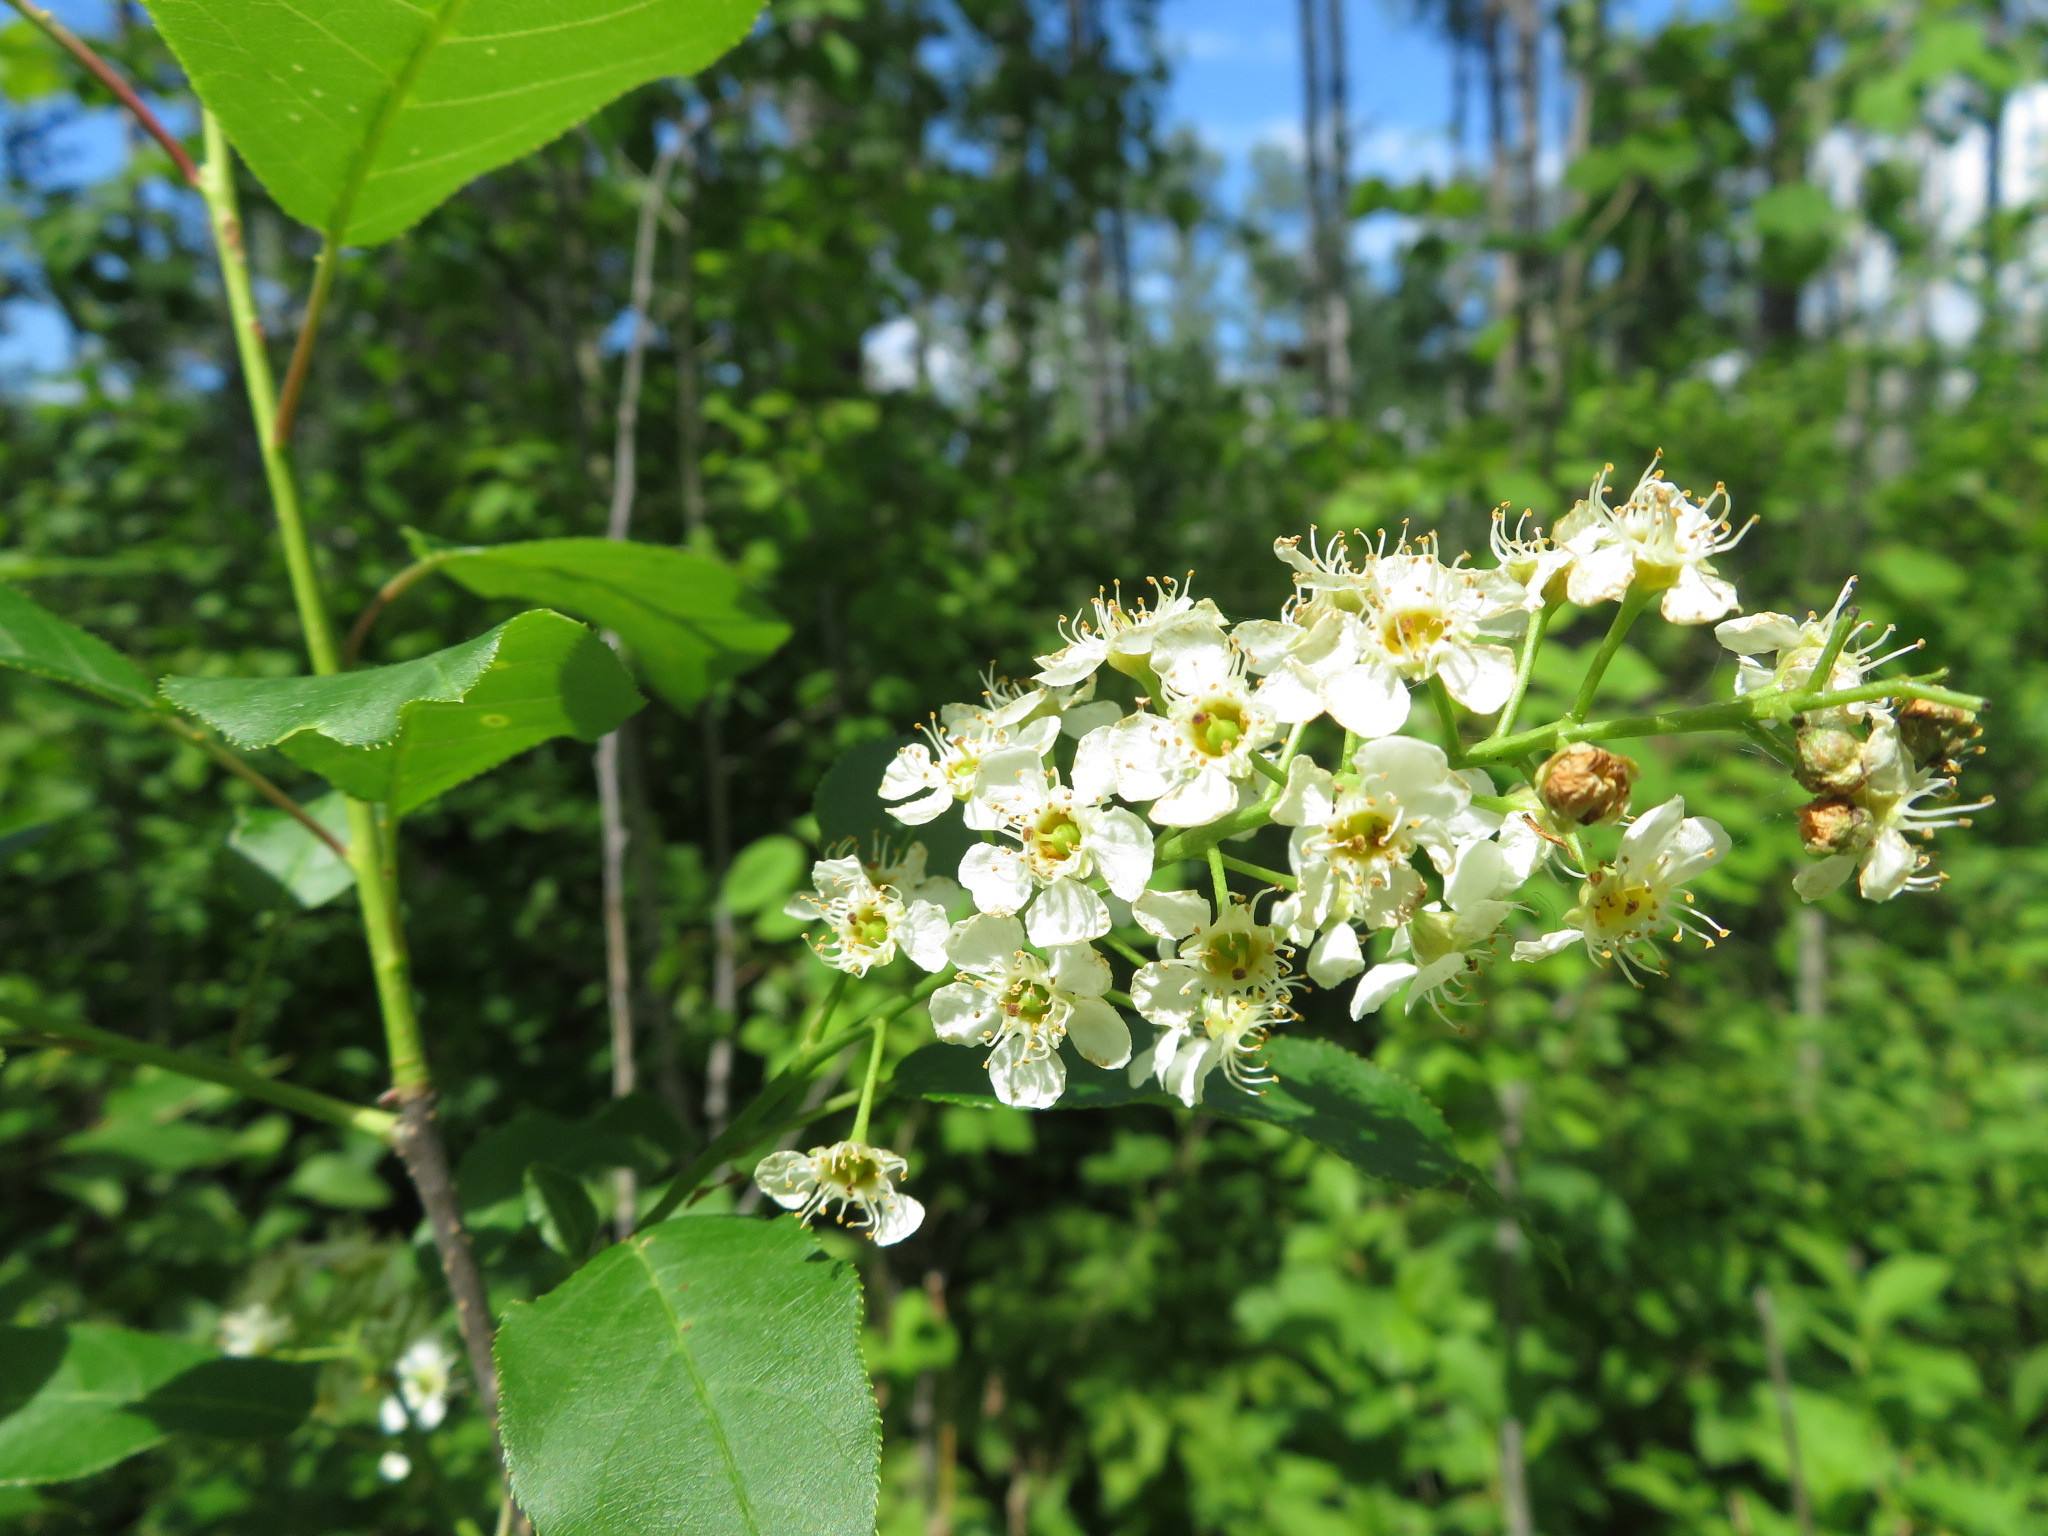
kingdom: Plantae
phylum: Tracheophyta
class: Magnoliopsida
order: Rosales
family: Rosaceae
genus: Prunus
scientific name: Prunus virginiana
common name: Chokecherry
